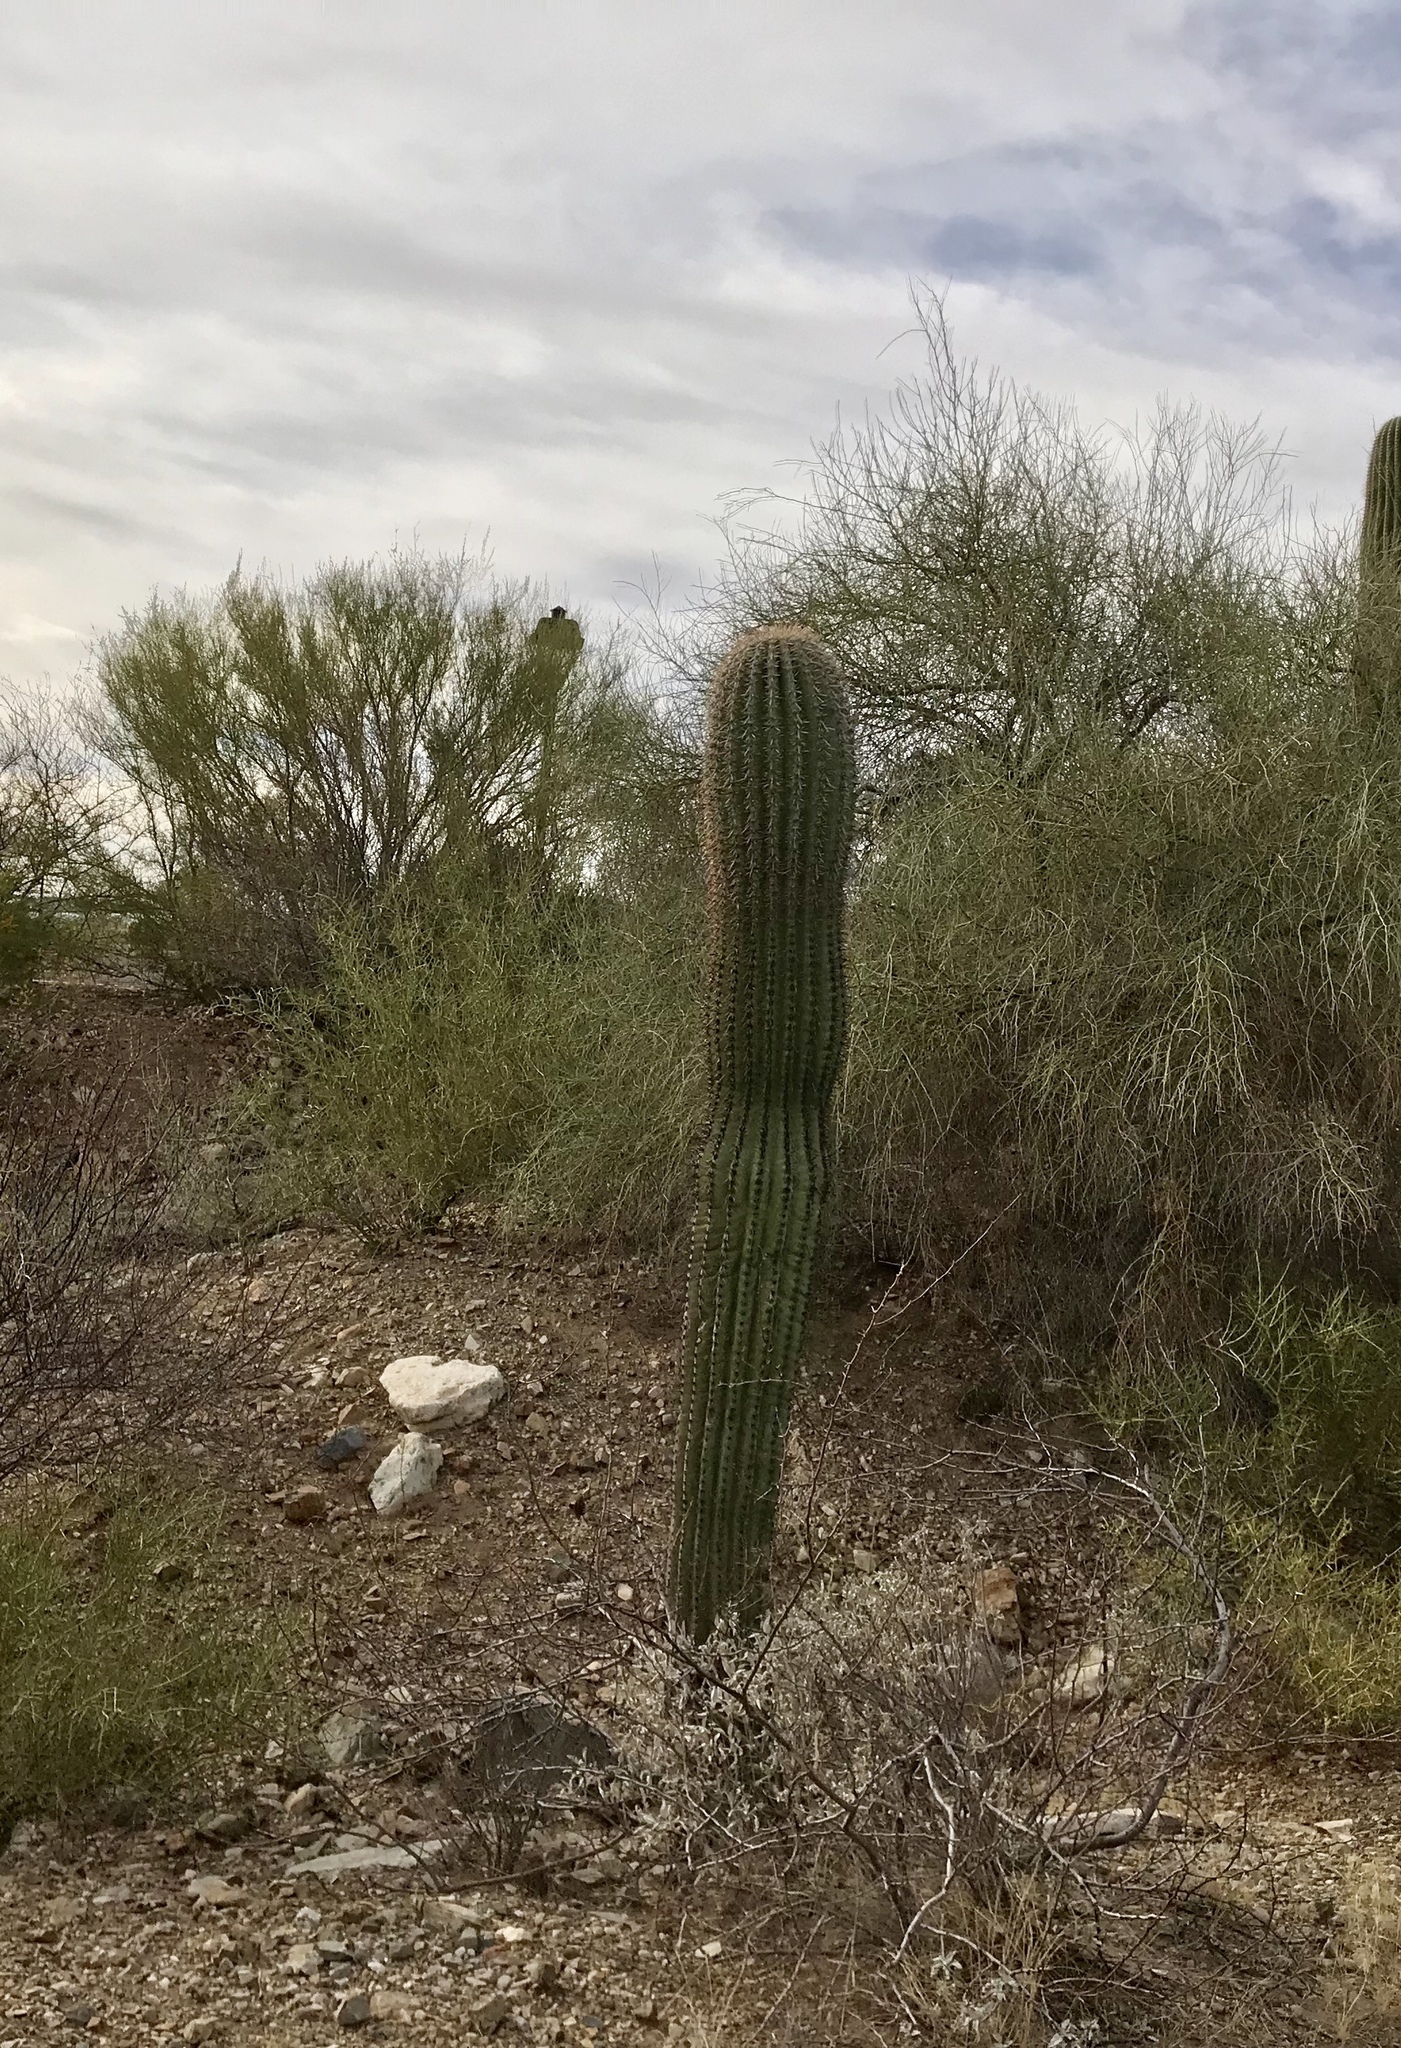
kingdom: Plantae
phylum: Tracheophyta
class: Magnoliopsida
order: Caryophyllales
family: Cactaceae
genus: Carnegiea
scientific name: Carnegiea gigantea
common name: Saguaro
